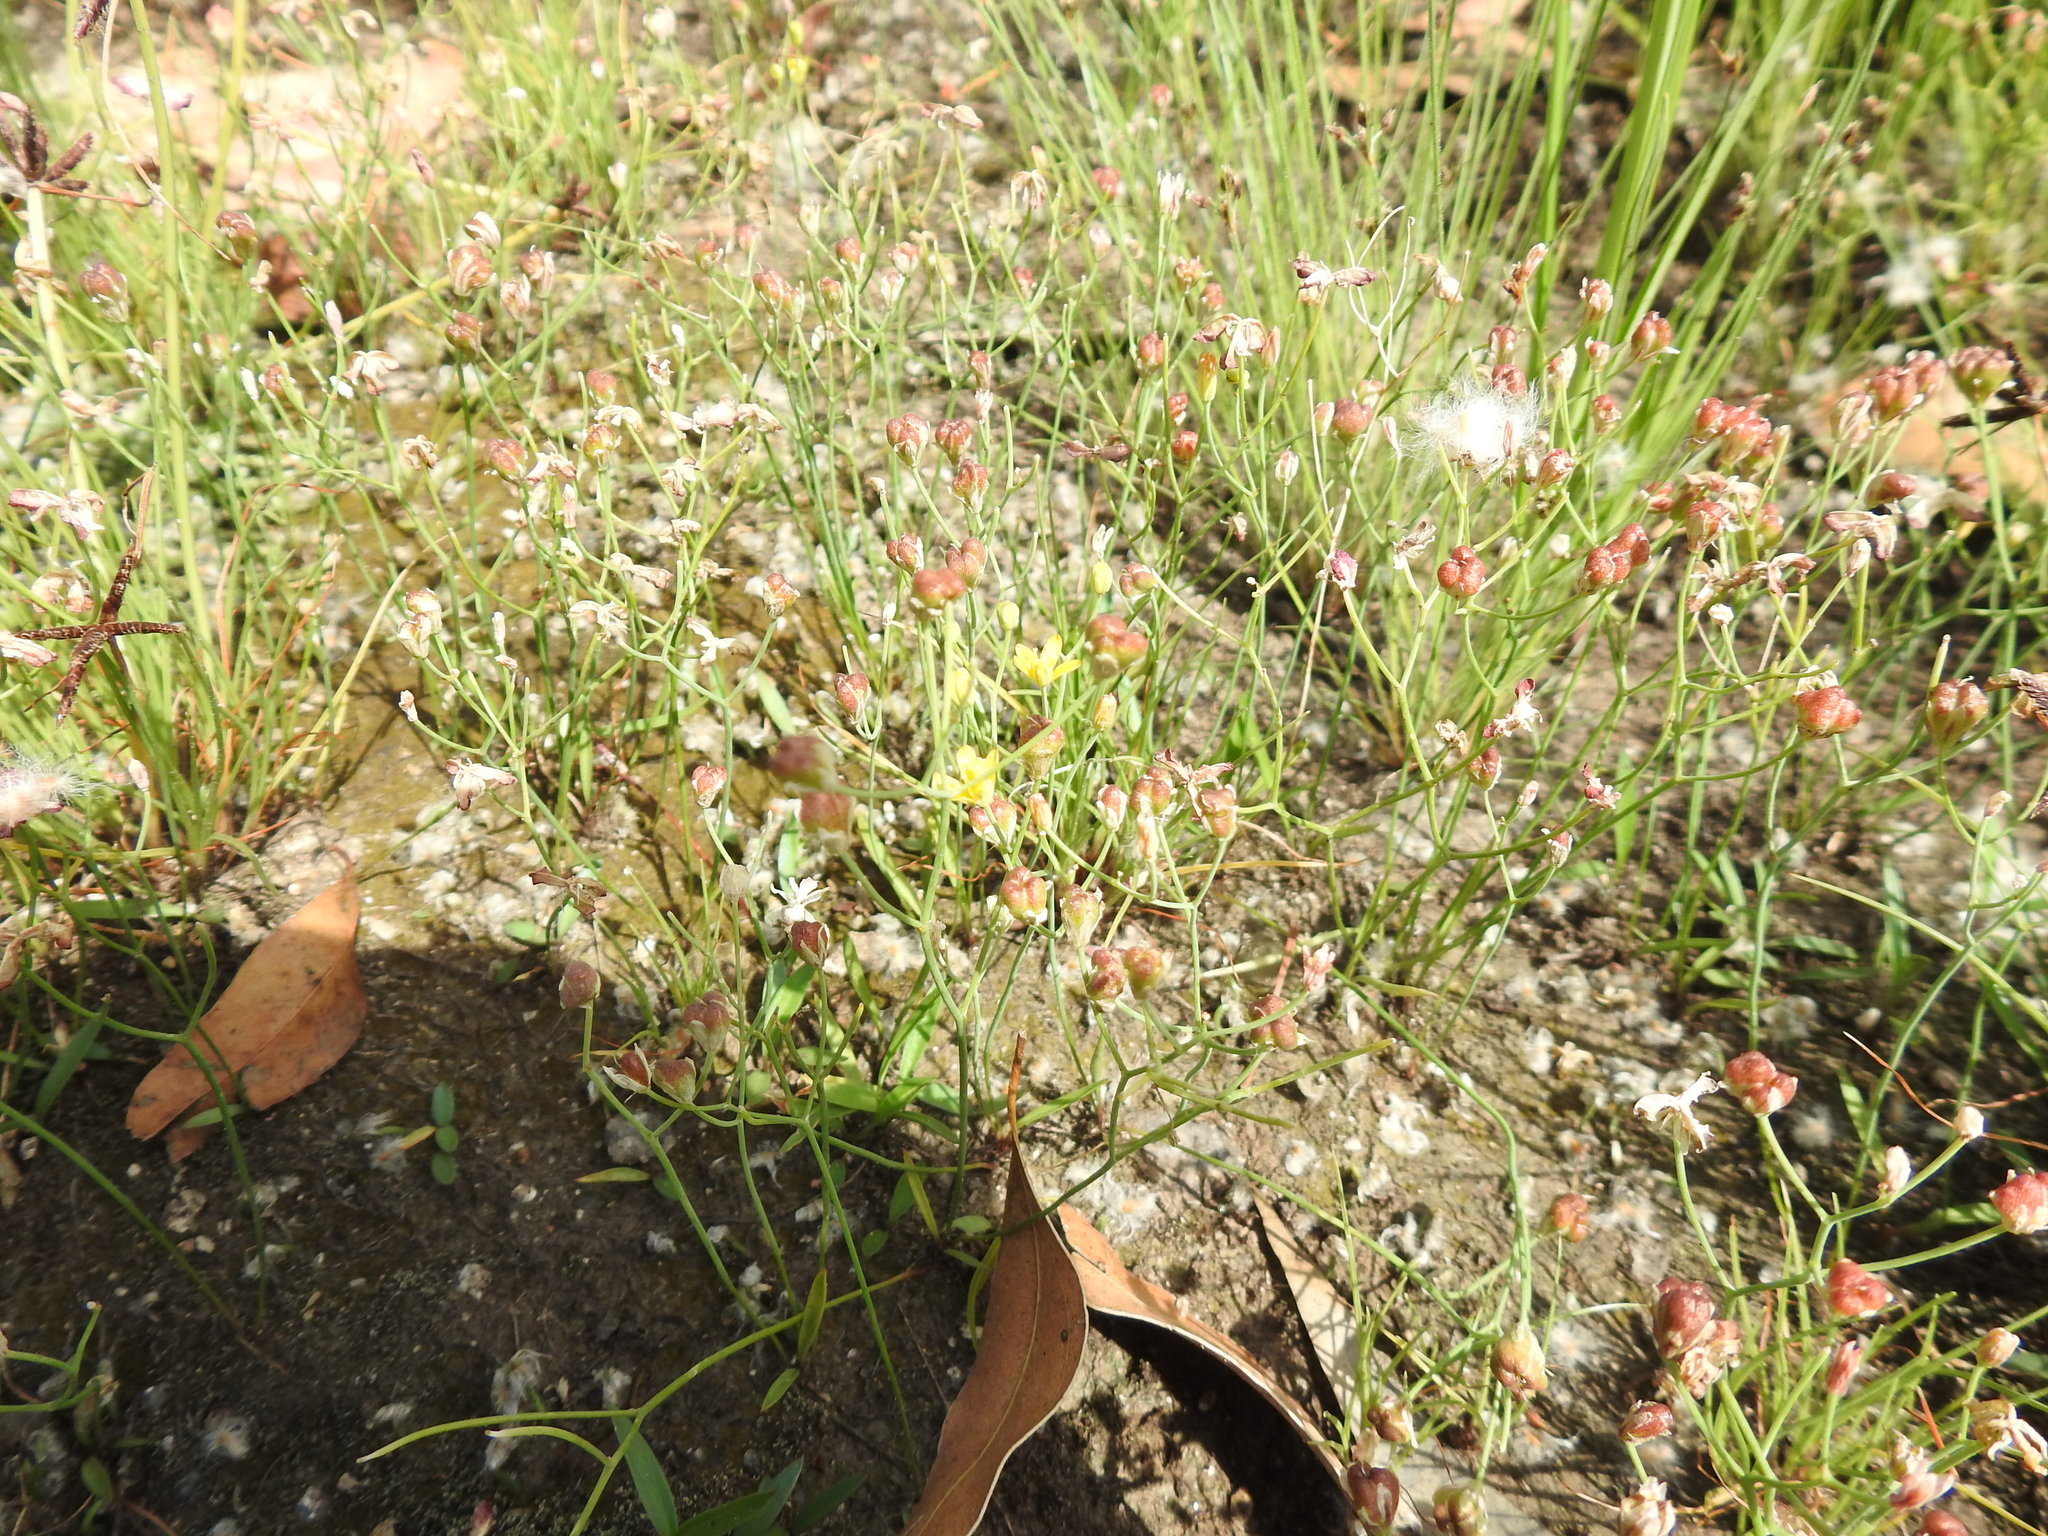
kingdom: Plantae
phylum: Tracheophyta
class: Liliopsida
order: Asparagales
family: Asparagaceae
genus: Eriospermum
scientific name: Eriospermum porphyrovalve
